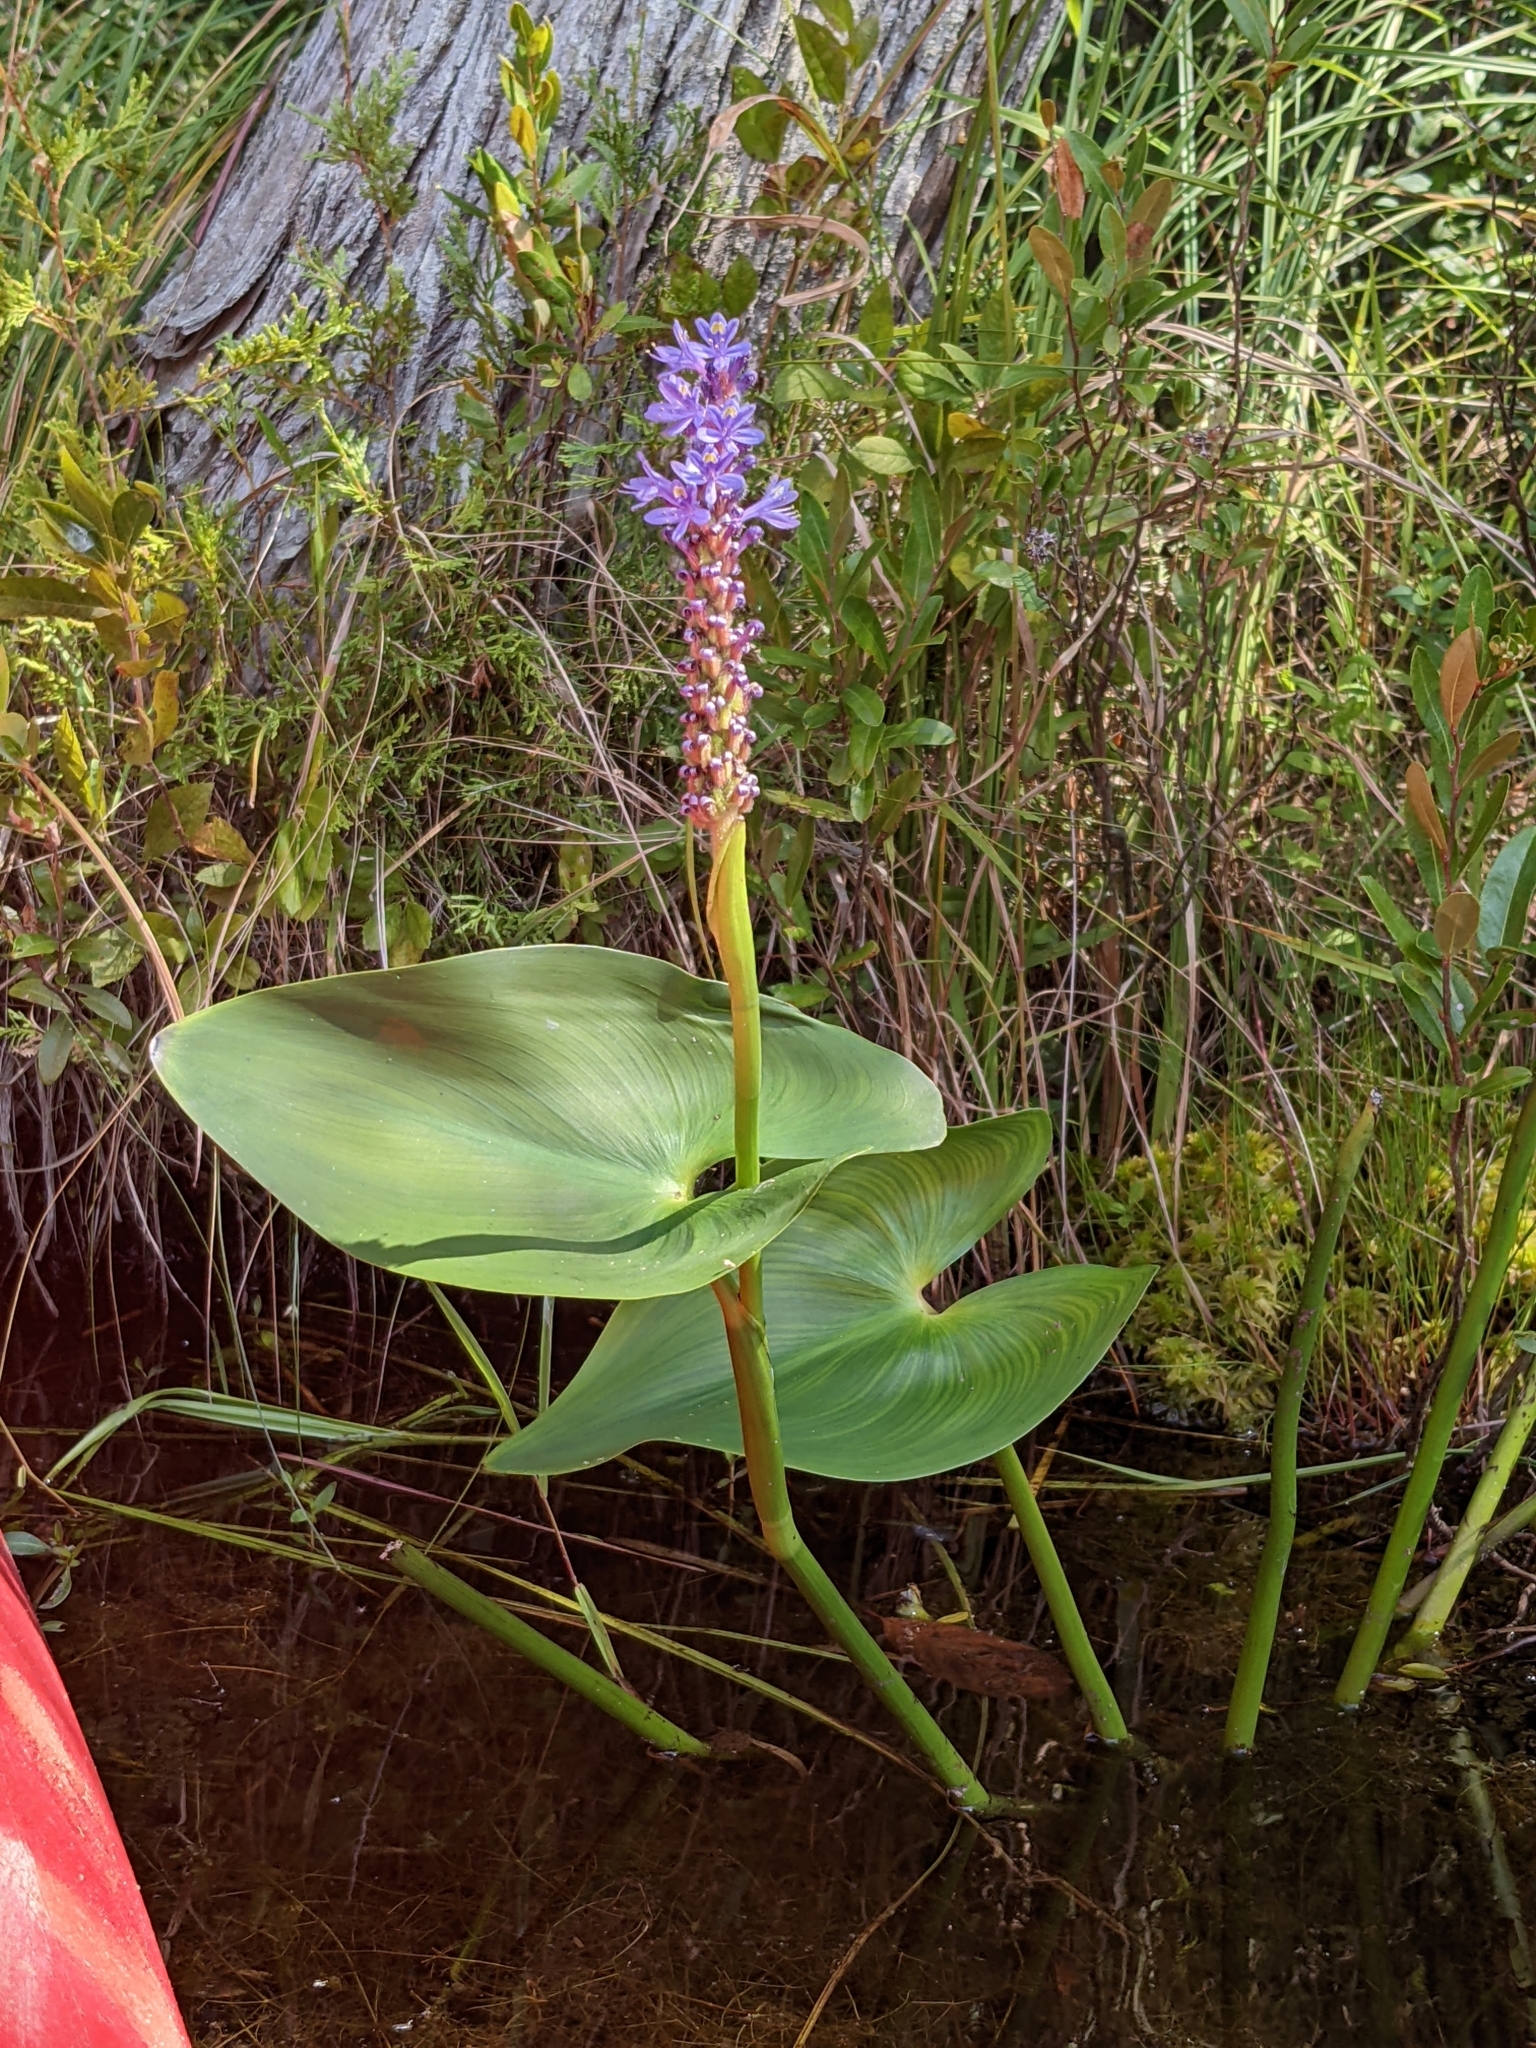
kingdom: Plantae
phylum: Tracheophyta
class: Liliopsida
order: Commelinales
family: Pontederiaceae
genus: Pontederia
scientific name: Pontederia cordata
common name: Pickerelweed
